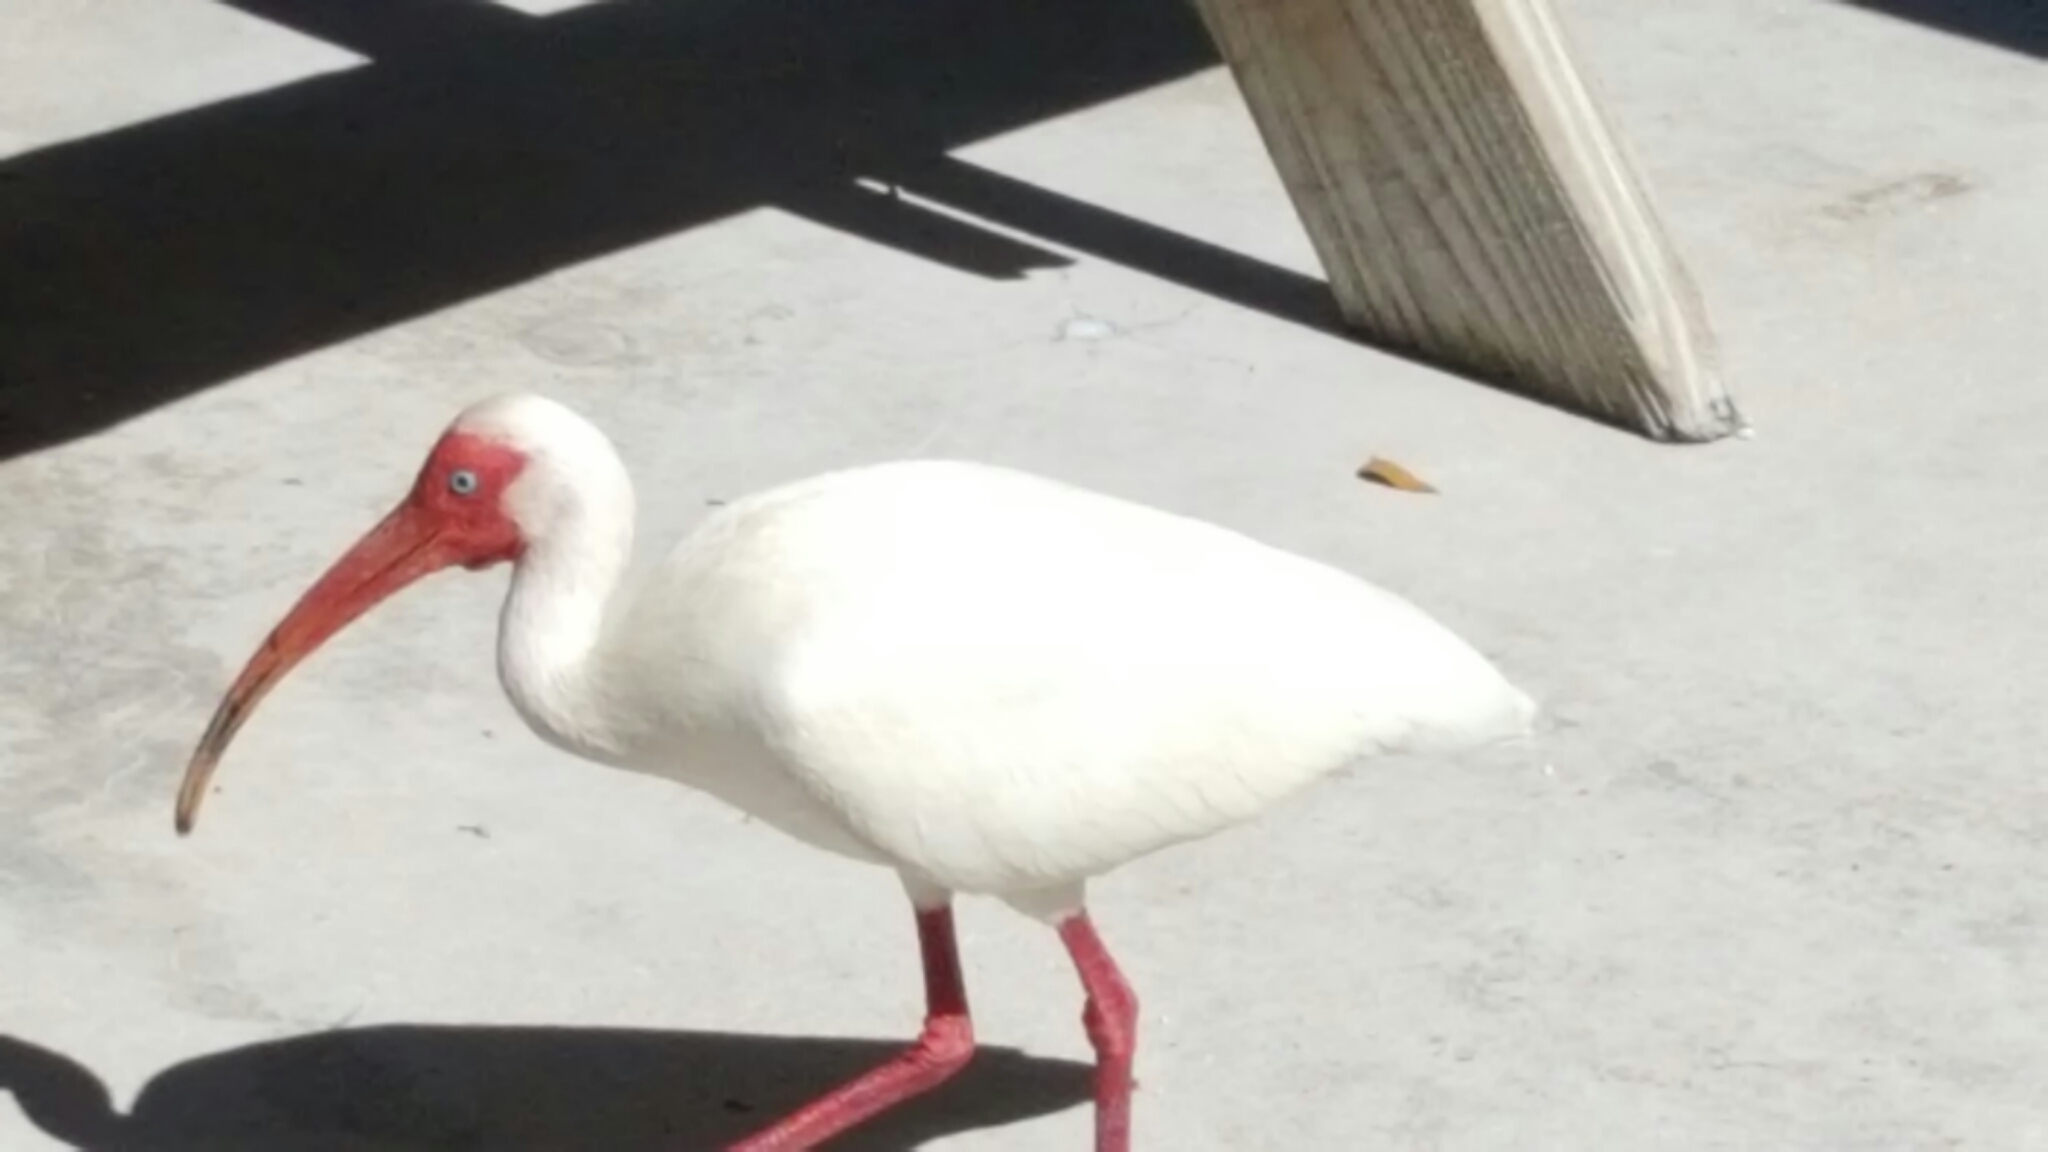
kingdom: Animalia
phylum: Chordata
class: Aves
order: Pelecaniformes
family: Threskiornithidae
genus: Eudocimus
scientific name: Eudocimus albus
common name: White ibis
